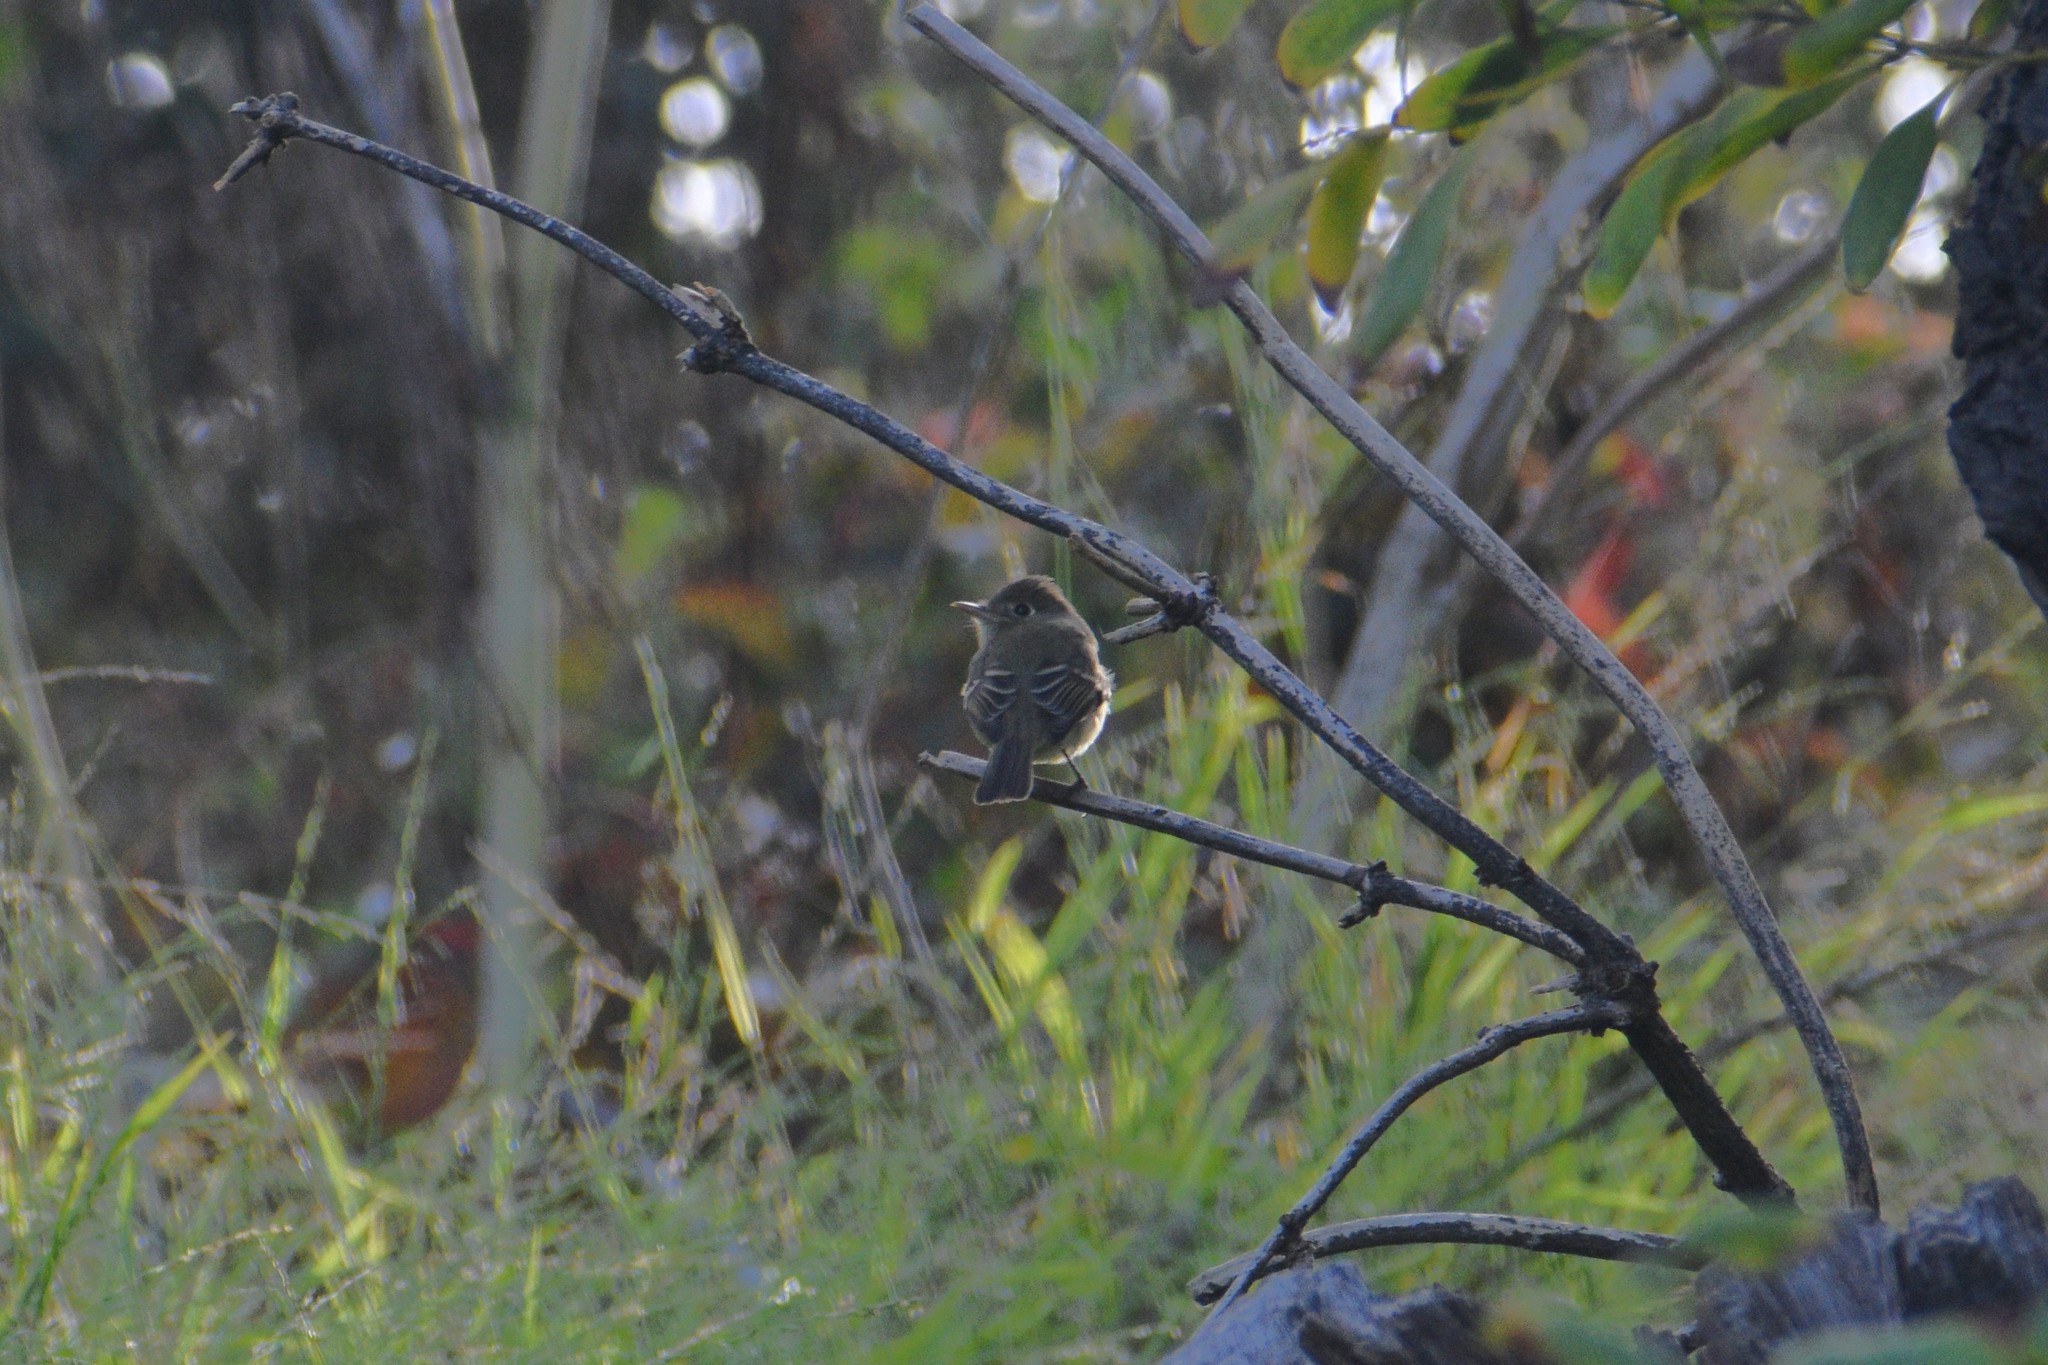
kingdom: Animalia
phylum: Chordata
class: Aves
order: Passeriformes
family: Tyrannidae
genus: Empidonax
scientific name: Empidonax difficilis
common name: Pacific-slope flycatcher
